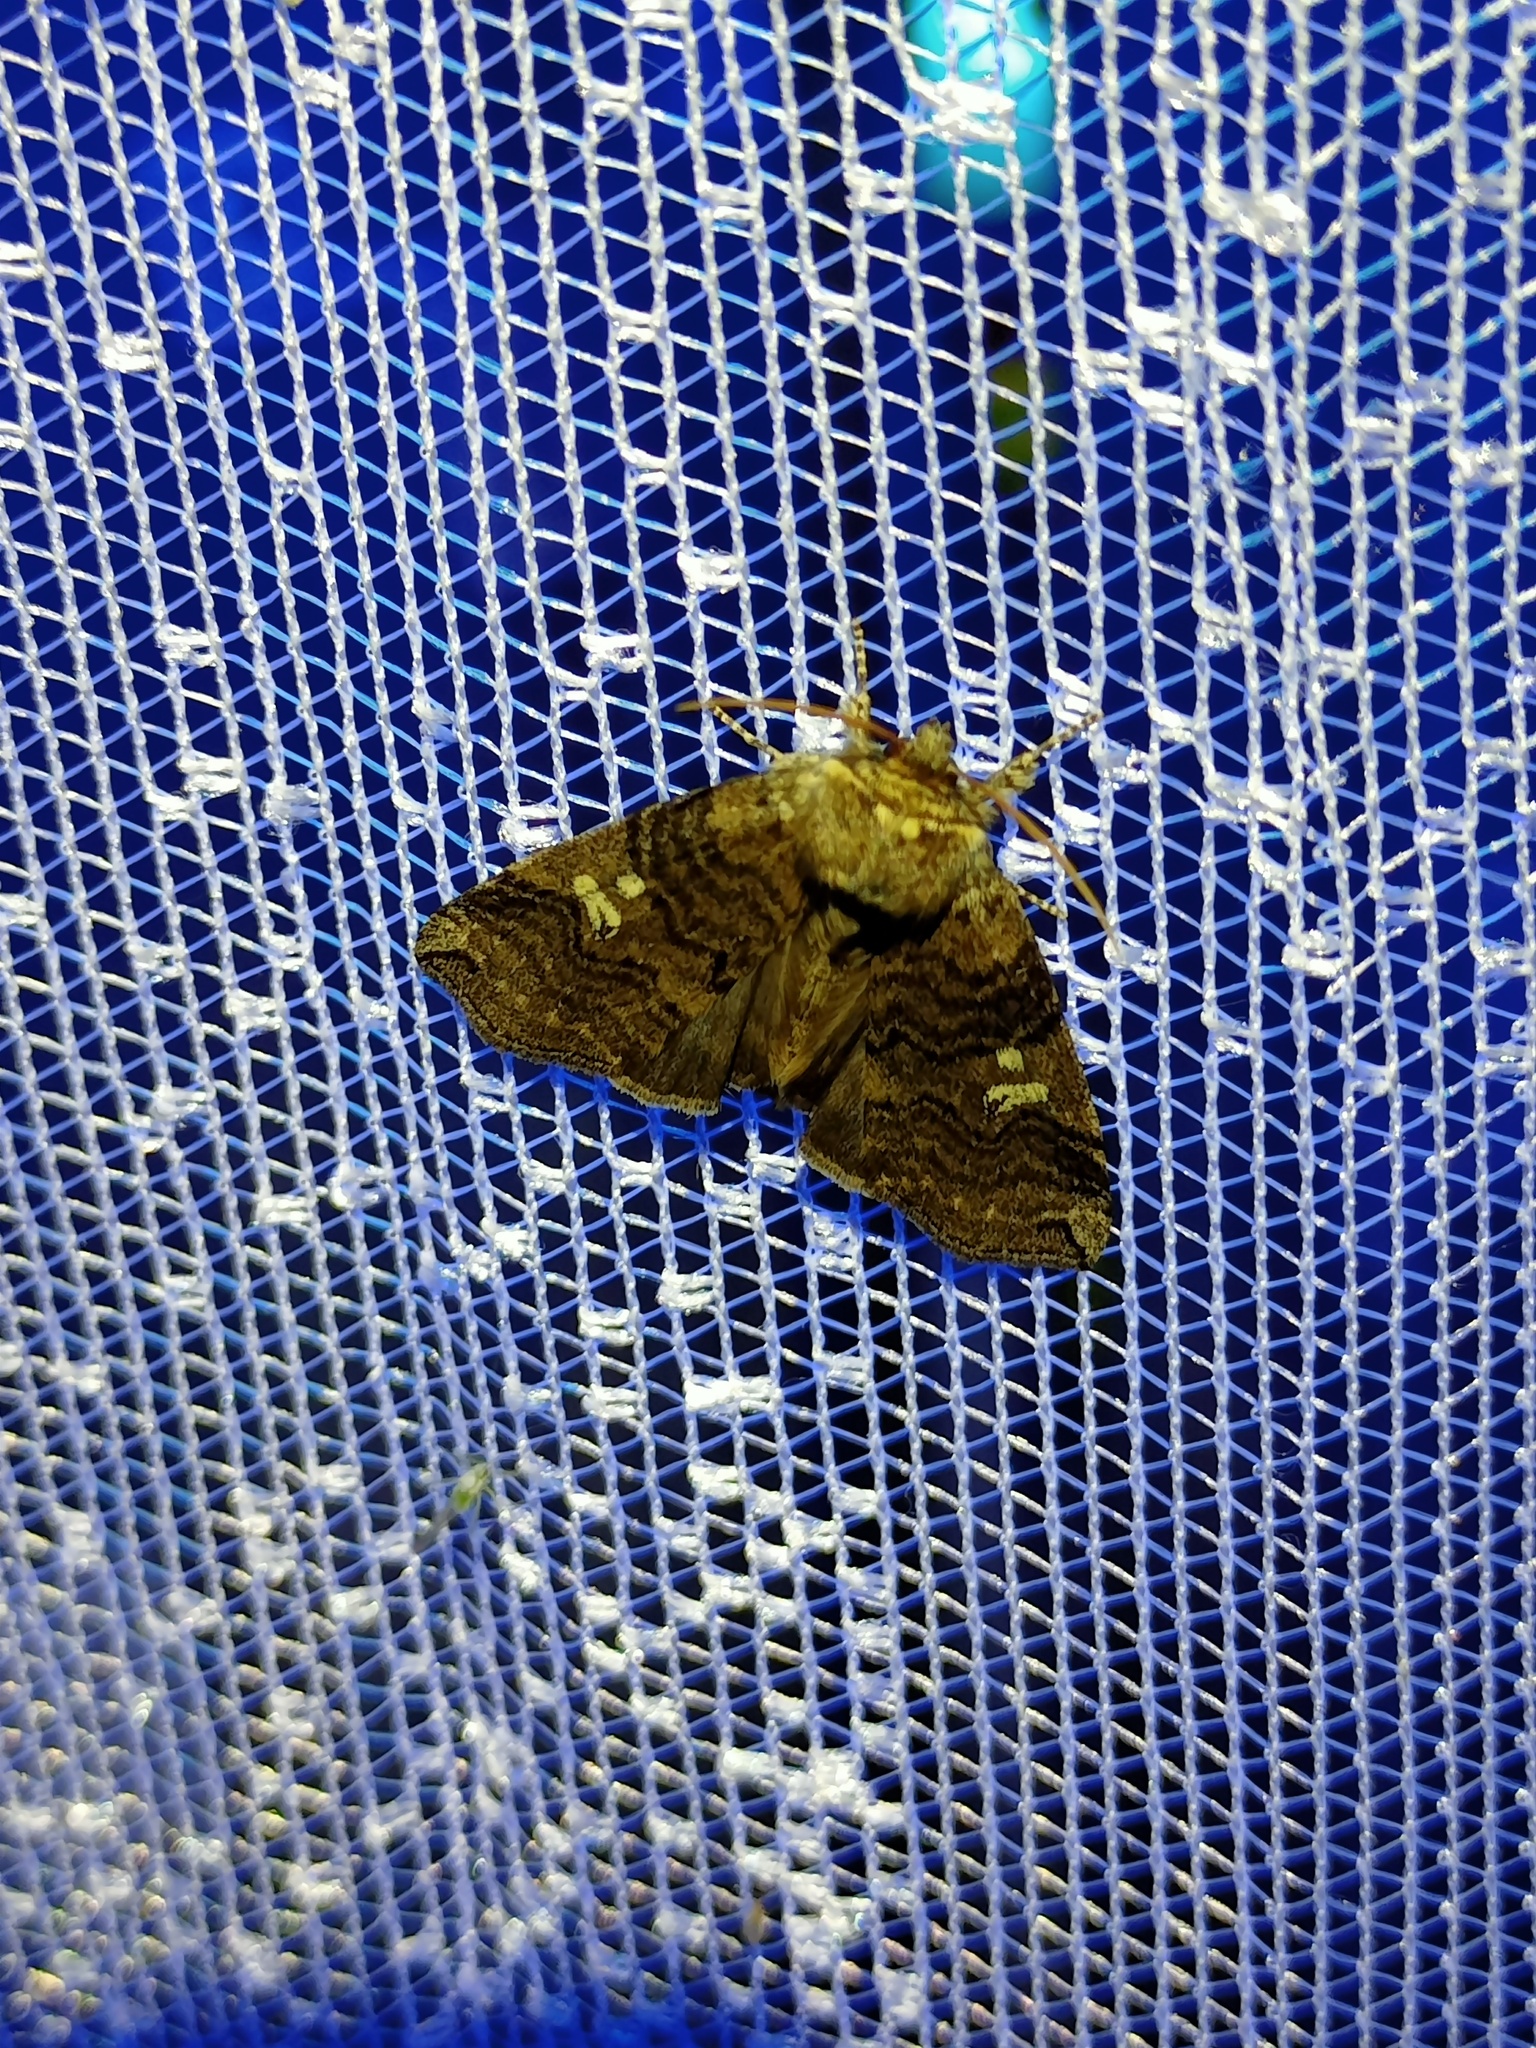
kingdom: Animalia
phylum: Arthropoda
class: Insecta
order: Lepidoptera
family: Drepanidae
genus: Tethea
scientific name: Tethea or
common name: Poplar lutestring
